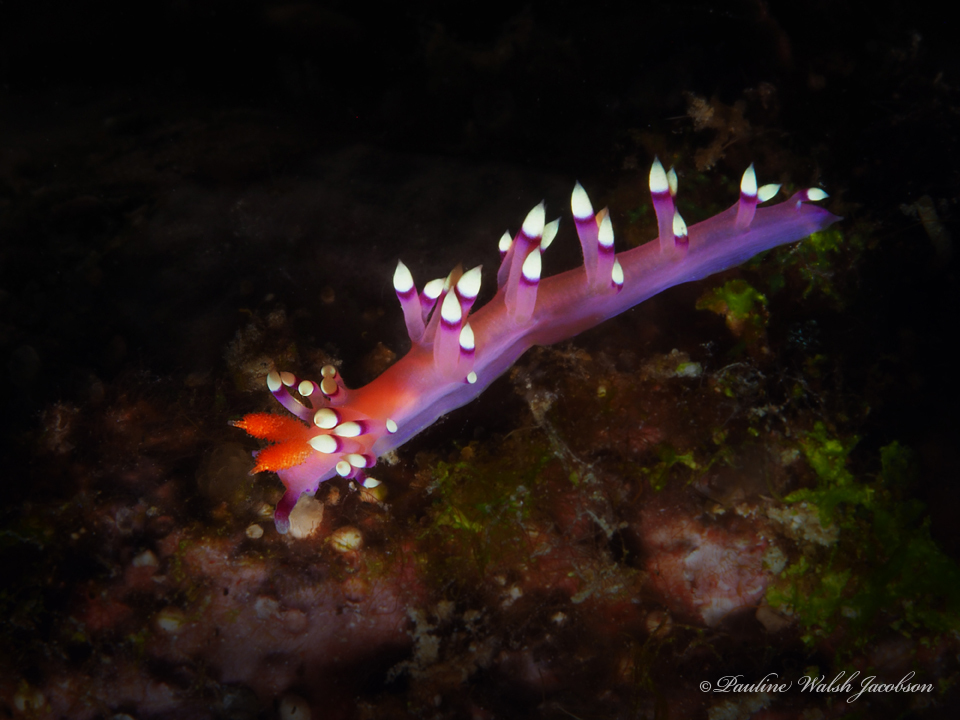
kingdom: Animalia
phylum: Mollusca
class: Gastropoda
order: Nudibranchia
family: Flabellinidae
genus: Coryphellina
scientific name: Coryphellina exoptata
